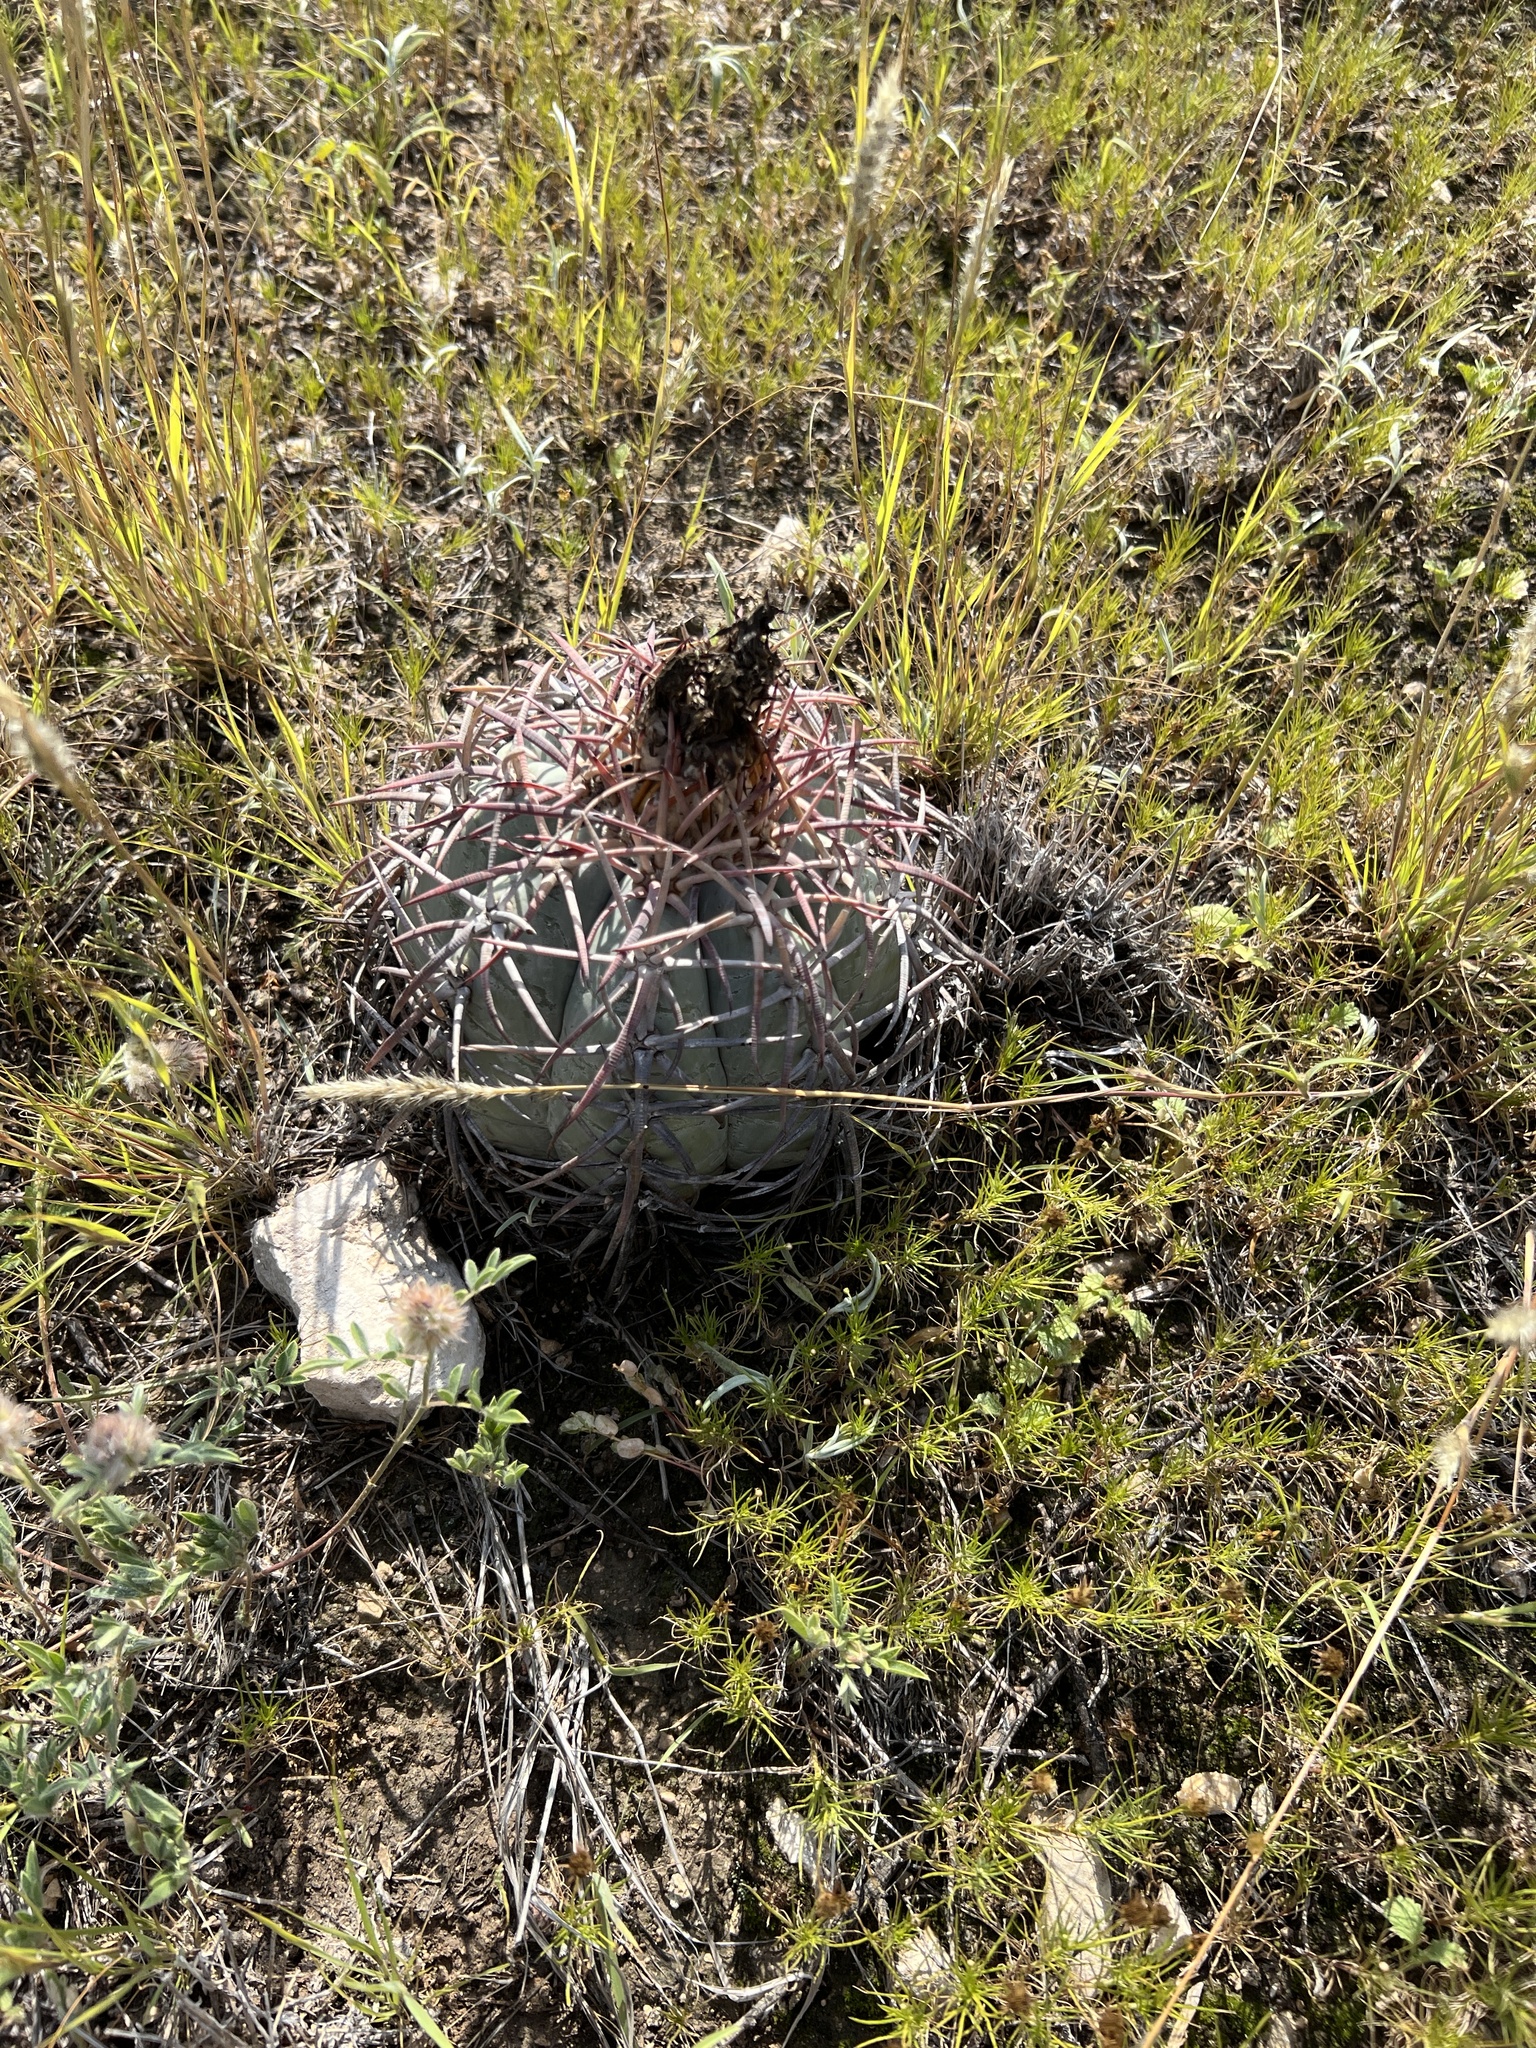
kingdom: Plantae
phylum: Tracheophyta
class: Magnoliopsida
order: Caryophyllales
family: Cactaceae
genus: Echinocactus
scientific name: Echinocactus horizonthalonius
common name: Devilshead
